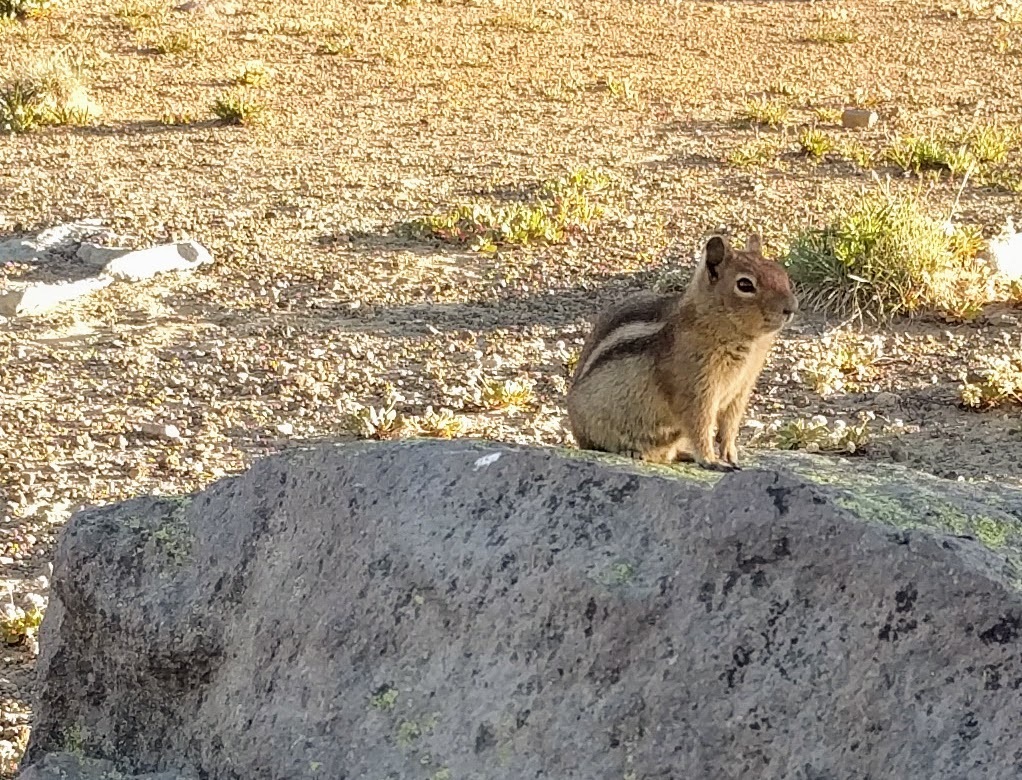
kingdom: Animalia
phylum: Chordata
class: Mammalia
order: Rodentia
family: Sciuridae
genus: Callospermophilus
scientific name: Callospermophilus saturatus
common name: Cascade golden-mantled ground squirrel
